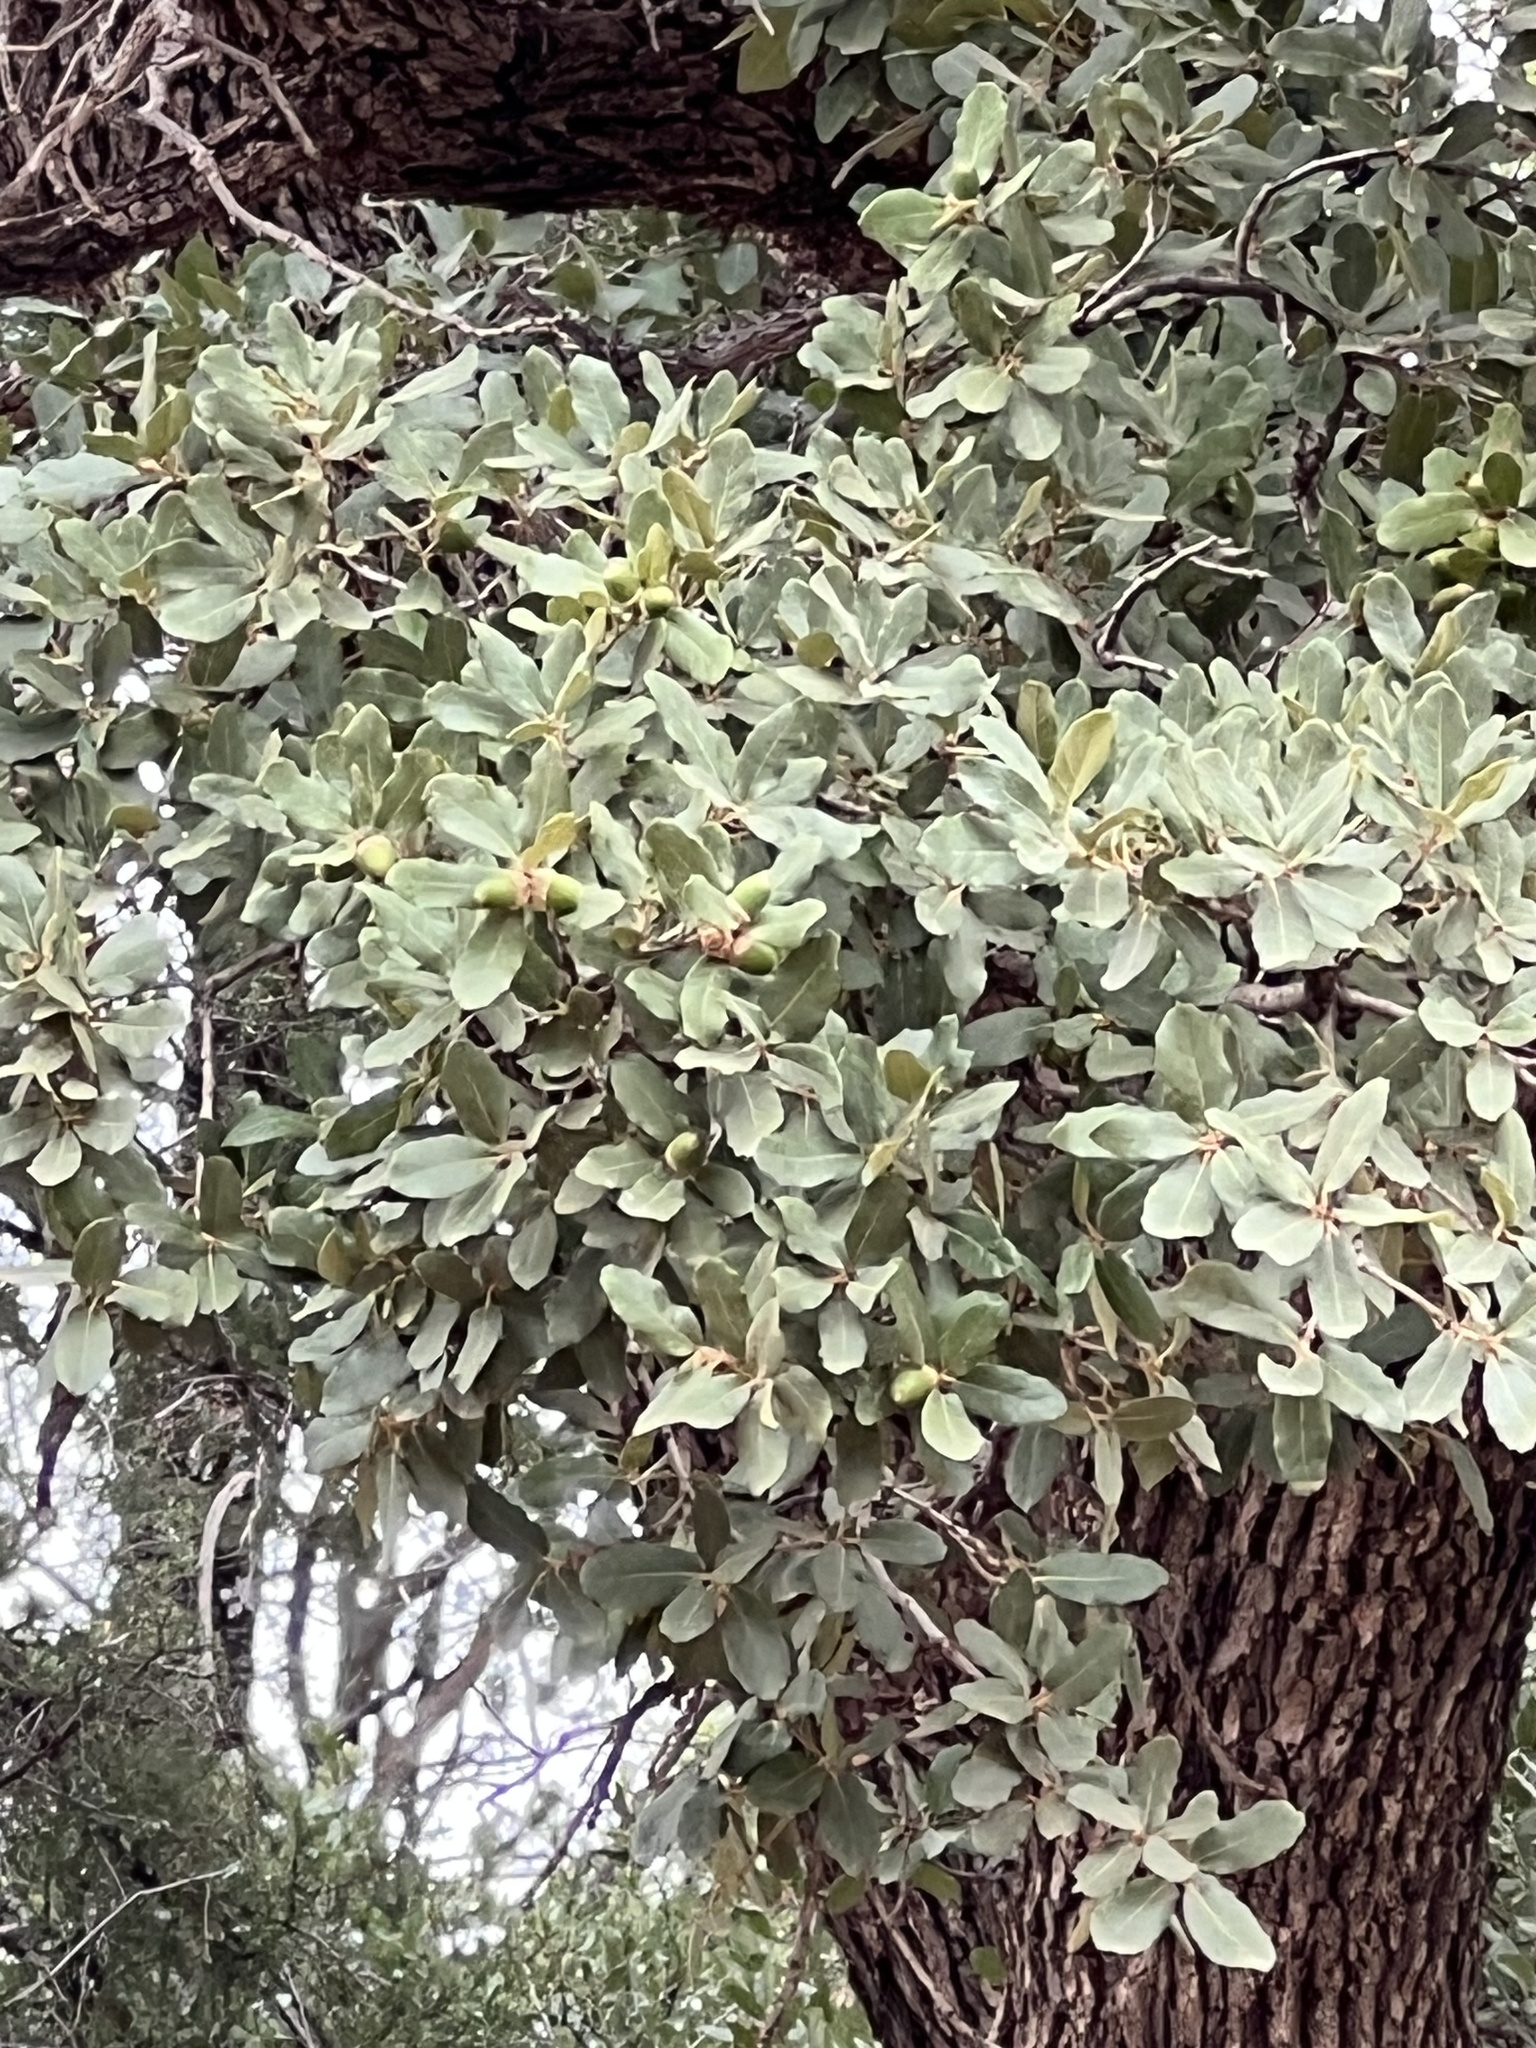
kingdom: Plantae
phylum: Tracheophyta
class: Magnoliopsida
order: Fagales
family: Fagaceae
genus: Quercus
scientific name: Quercus oblongifolia
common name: Mexican blue oak
